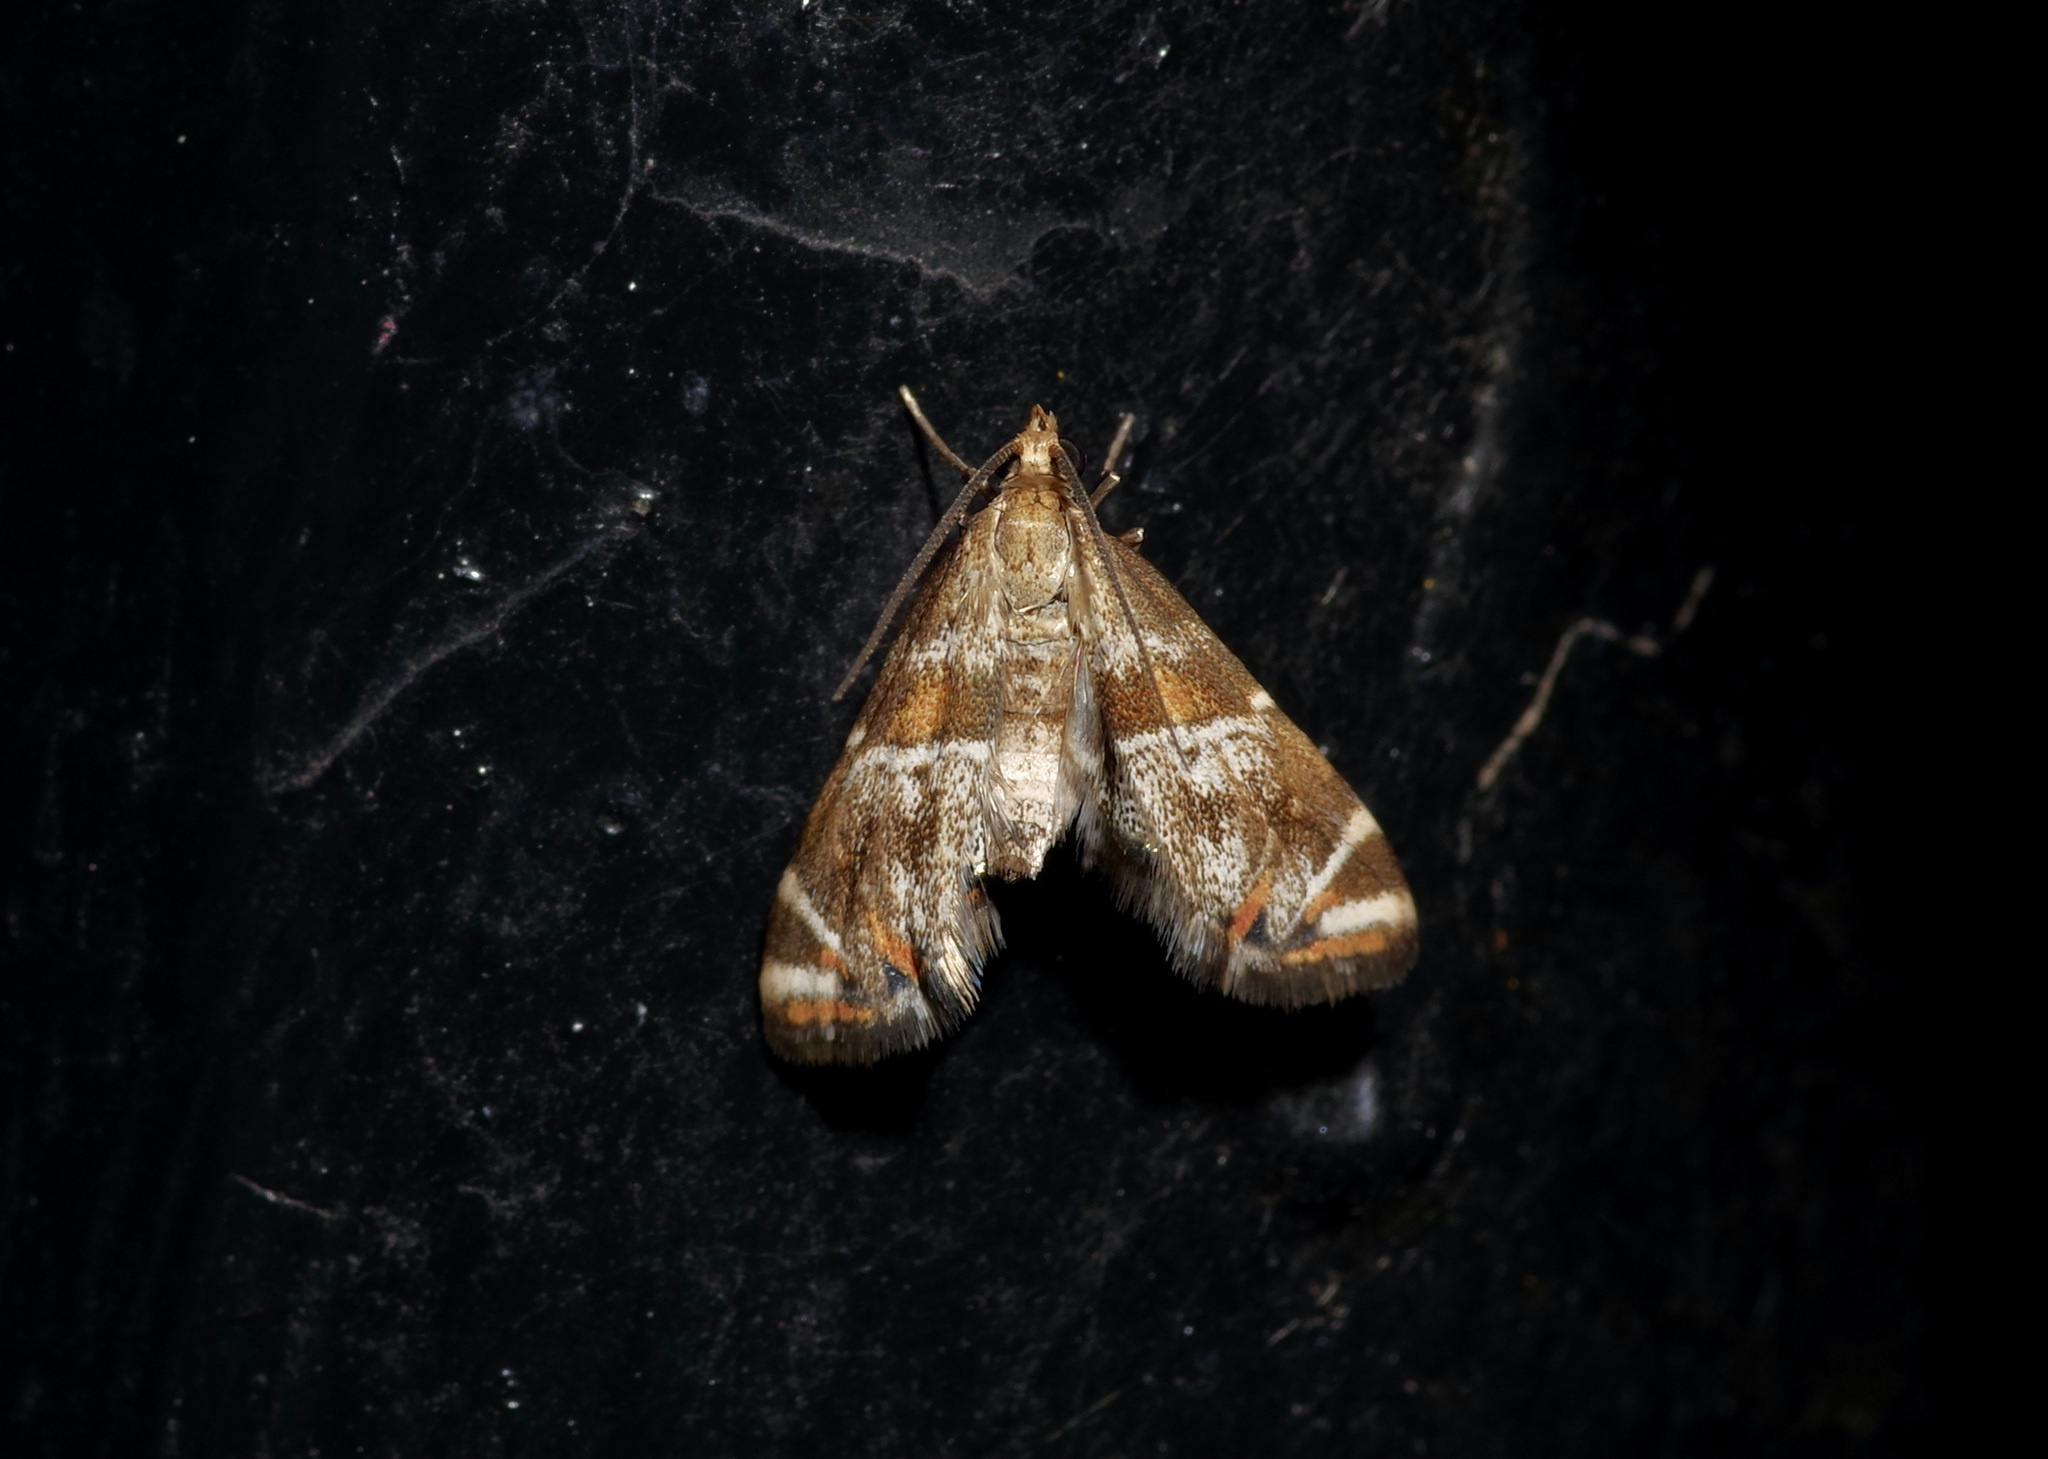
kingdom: Animalia
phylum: Arthropoda
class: Insecta
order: Lepidoptera
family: Crambidae
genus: Petrophila
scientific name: Petrophila jaliscalis
